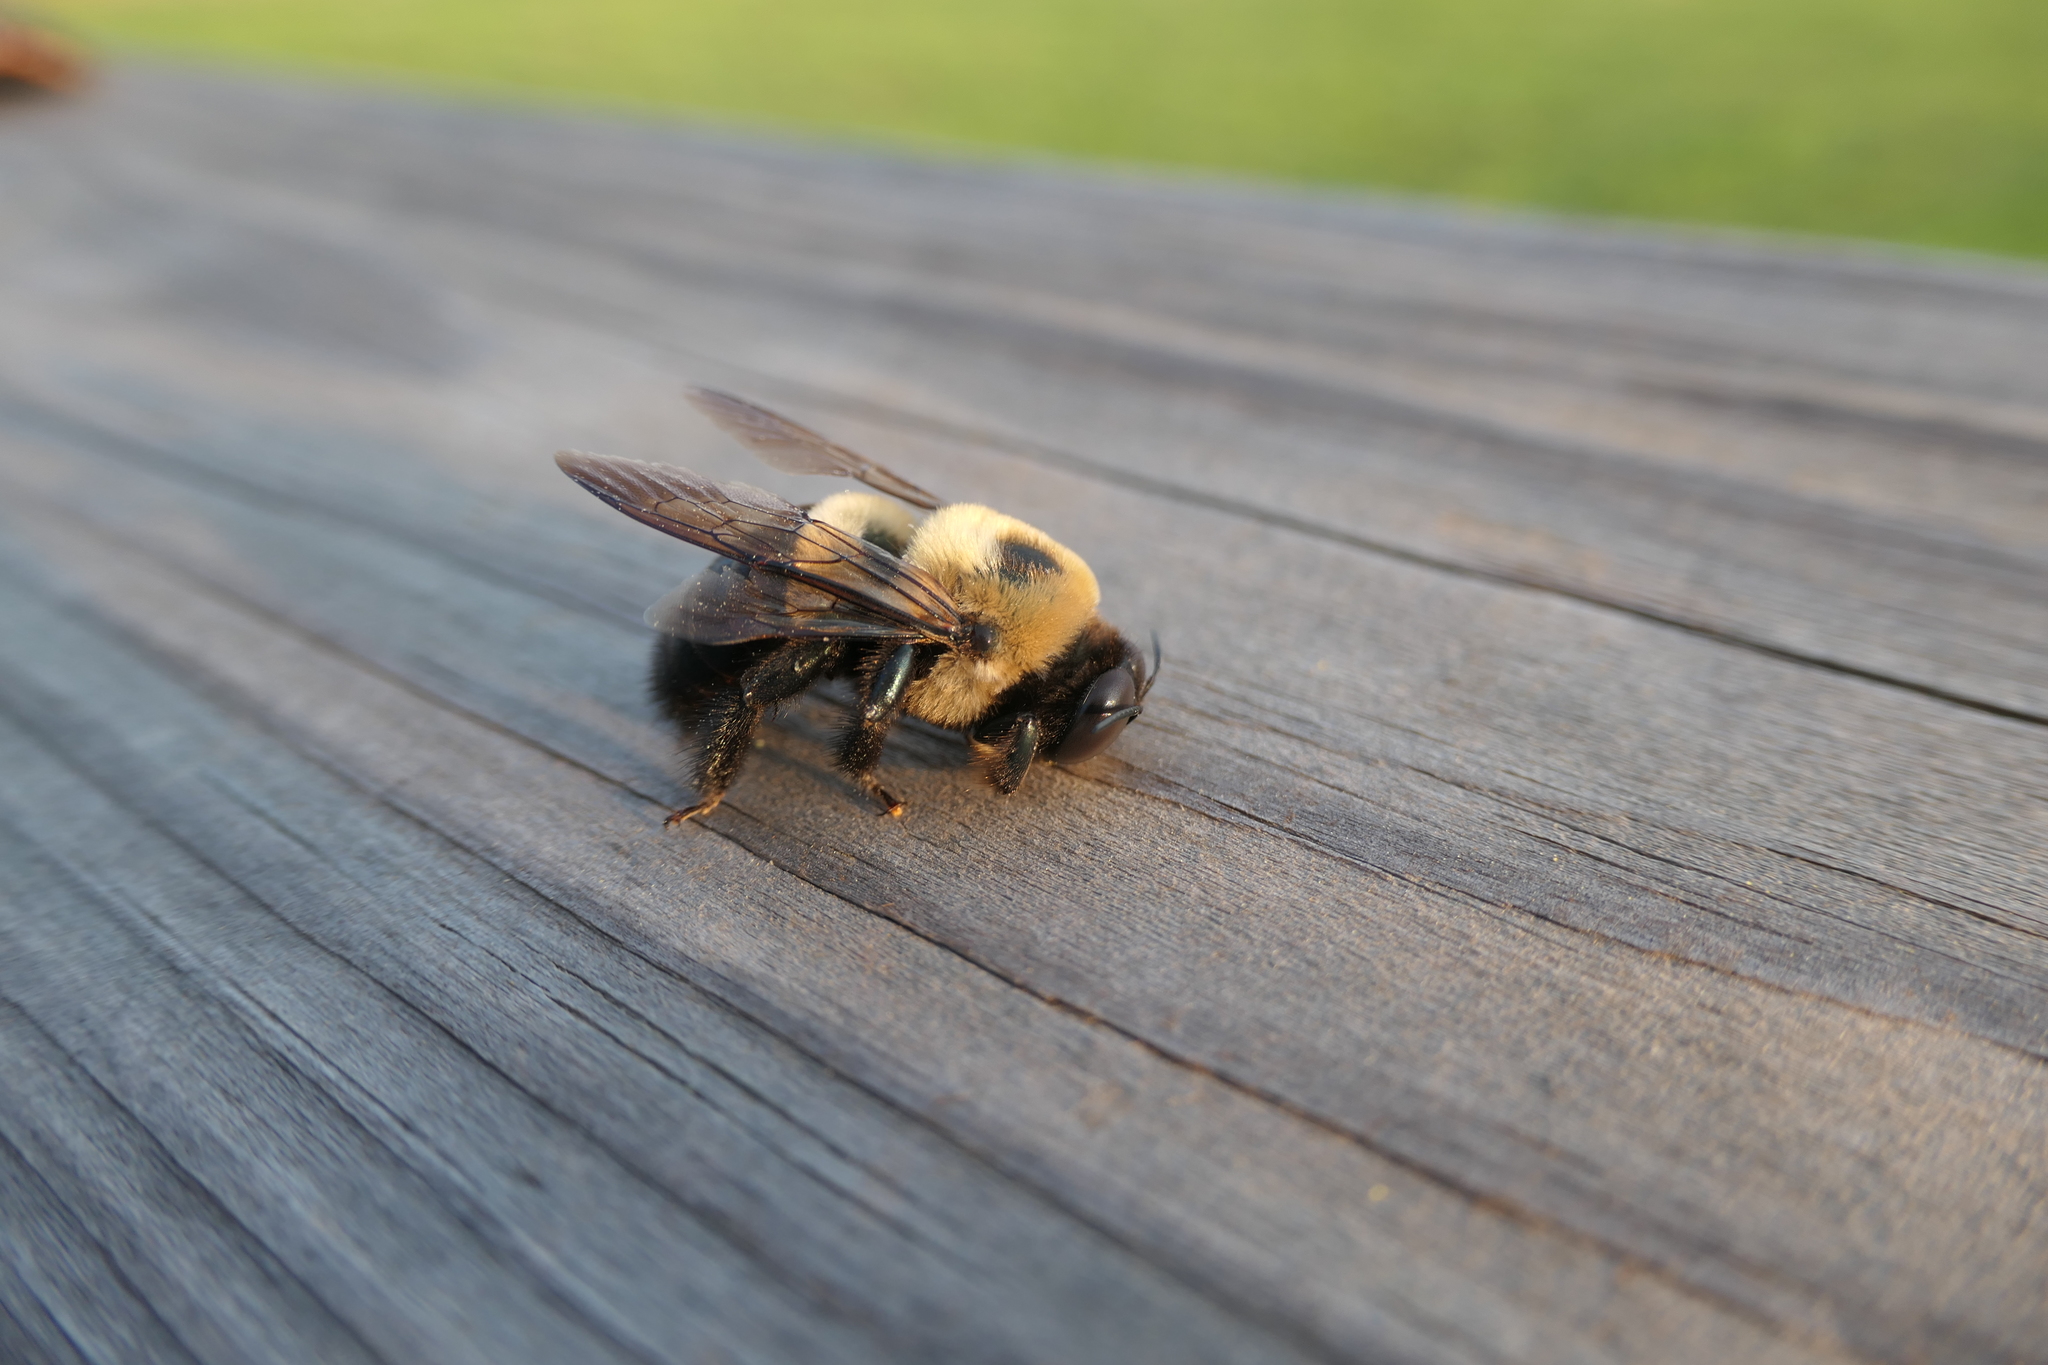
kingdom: Animalia
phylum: Arthropoda
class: Insecta
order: Hymenoptera
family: Apidae
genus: Xylocopa
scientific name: Xylocopa virginica
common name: Carpenter bee
